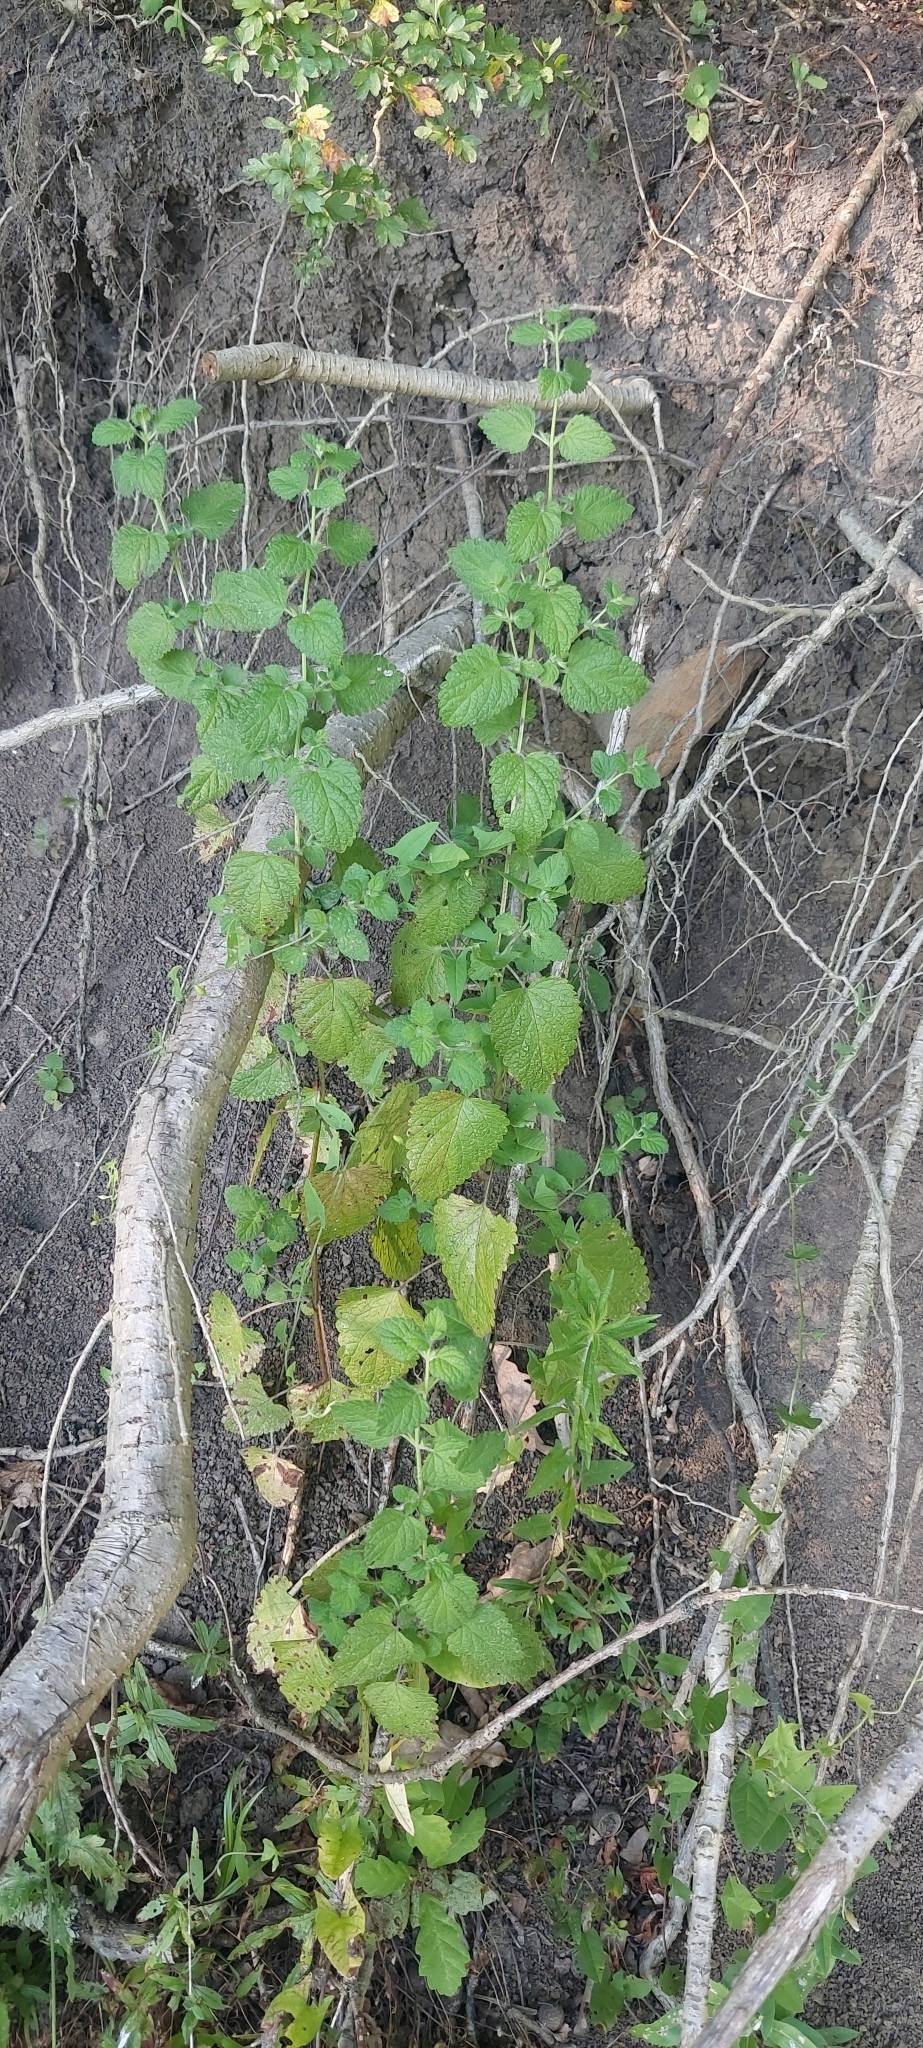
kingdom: Plantae
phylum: Tracheophyta
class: Magnoliopsida
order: Lamiales
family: Lamiaceae
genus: Melissa
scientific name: Melissa officinalis
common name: Balm
